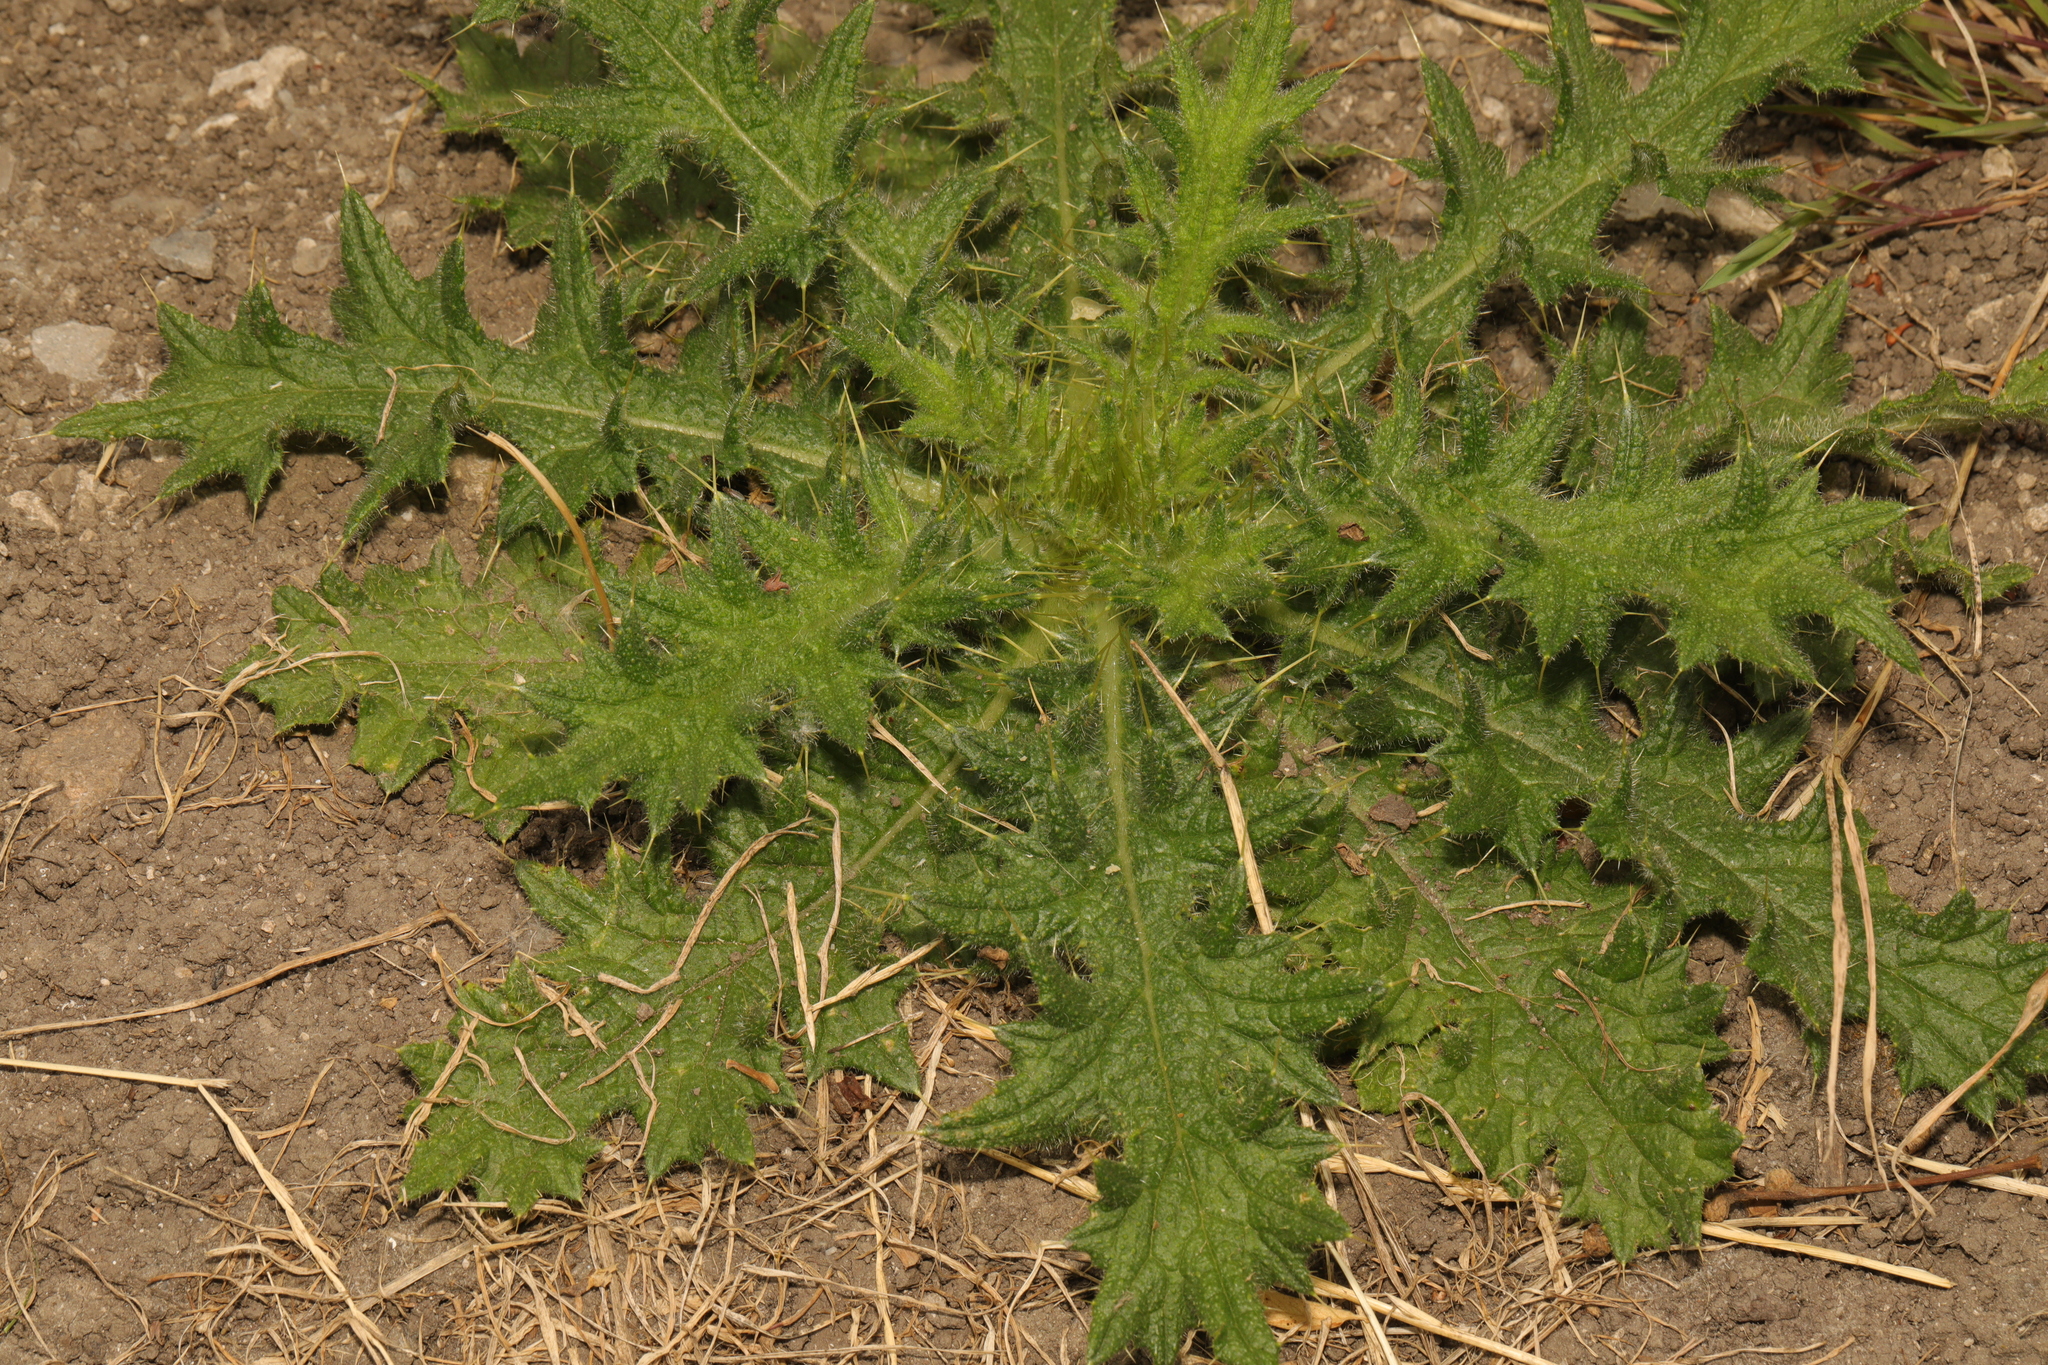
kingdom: Plantae
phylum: Tracheophyta
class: Magnoliopsida
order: Asterales
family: Asteraceae
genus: Cirsium
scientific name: Cirsium vulgare
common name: Bull thistle
